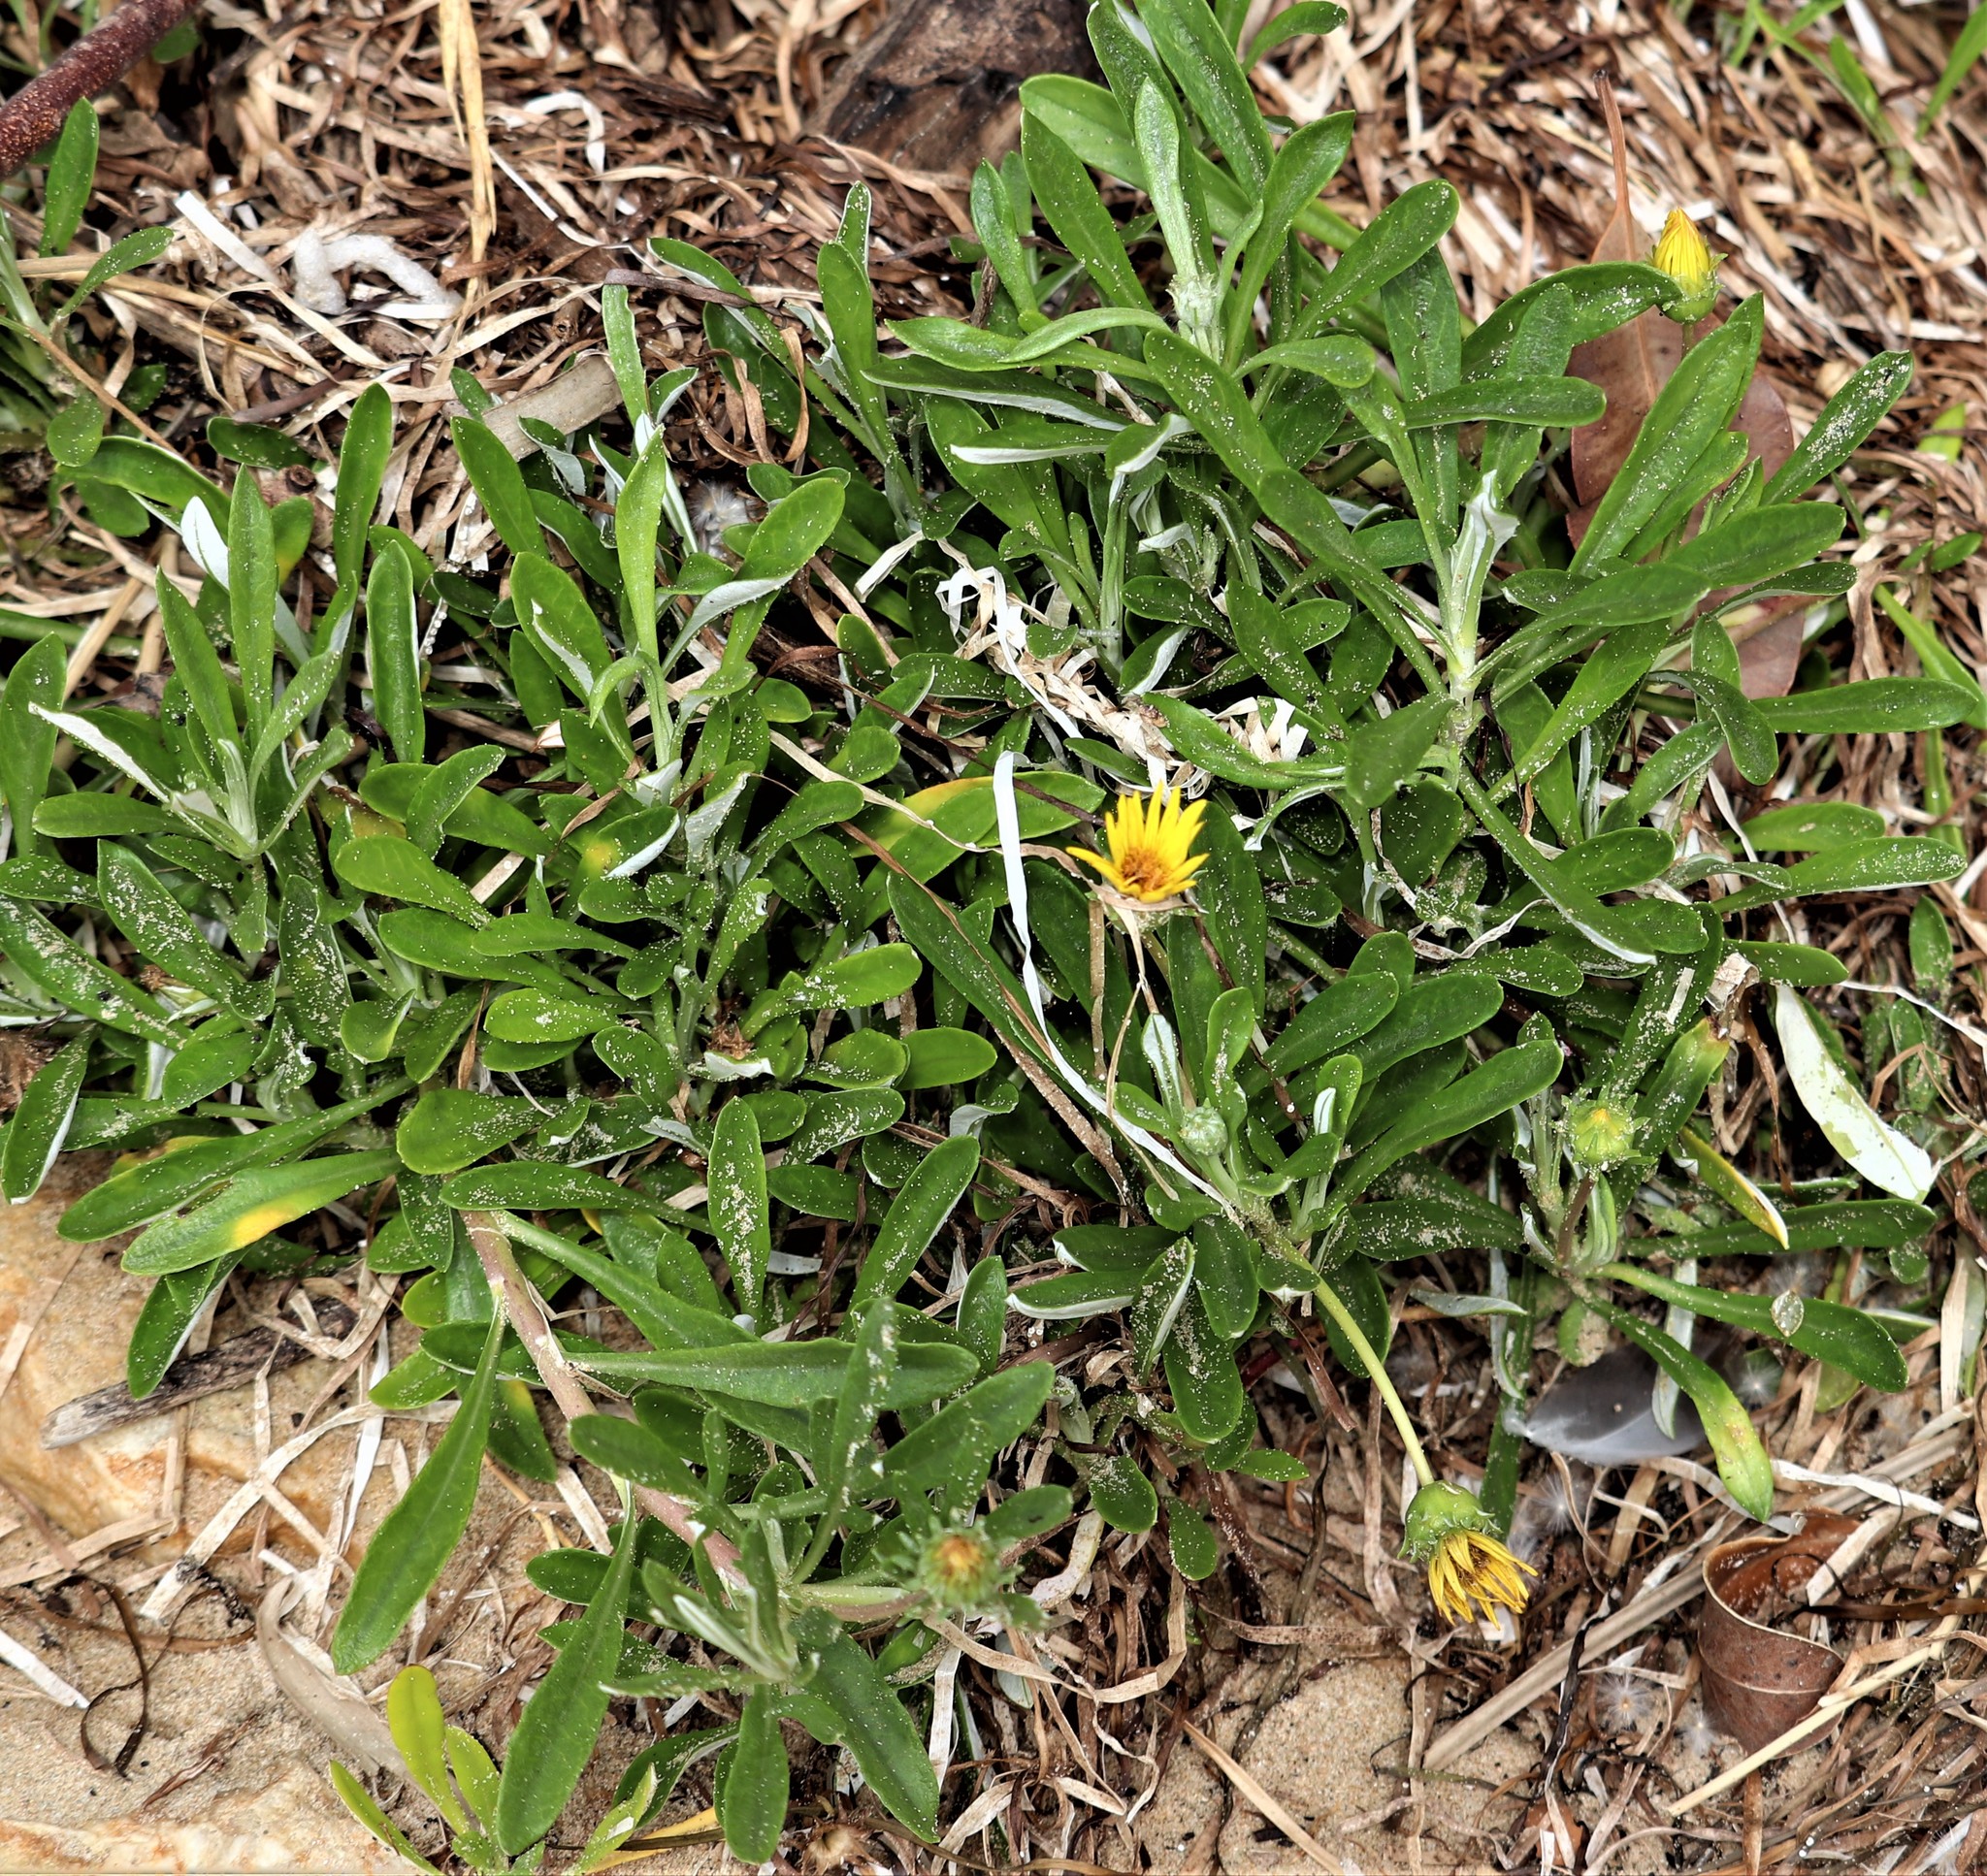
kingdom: Plantae
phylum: Tracheophyta
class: Magnoliopsida
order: Asterales
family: Asteraceae
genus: Gazania
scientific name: Gazania rigens
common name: Treasureflower
